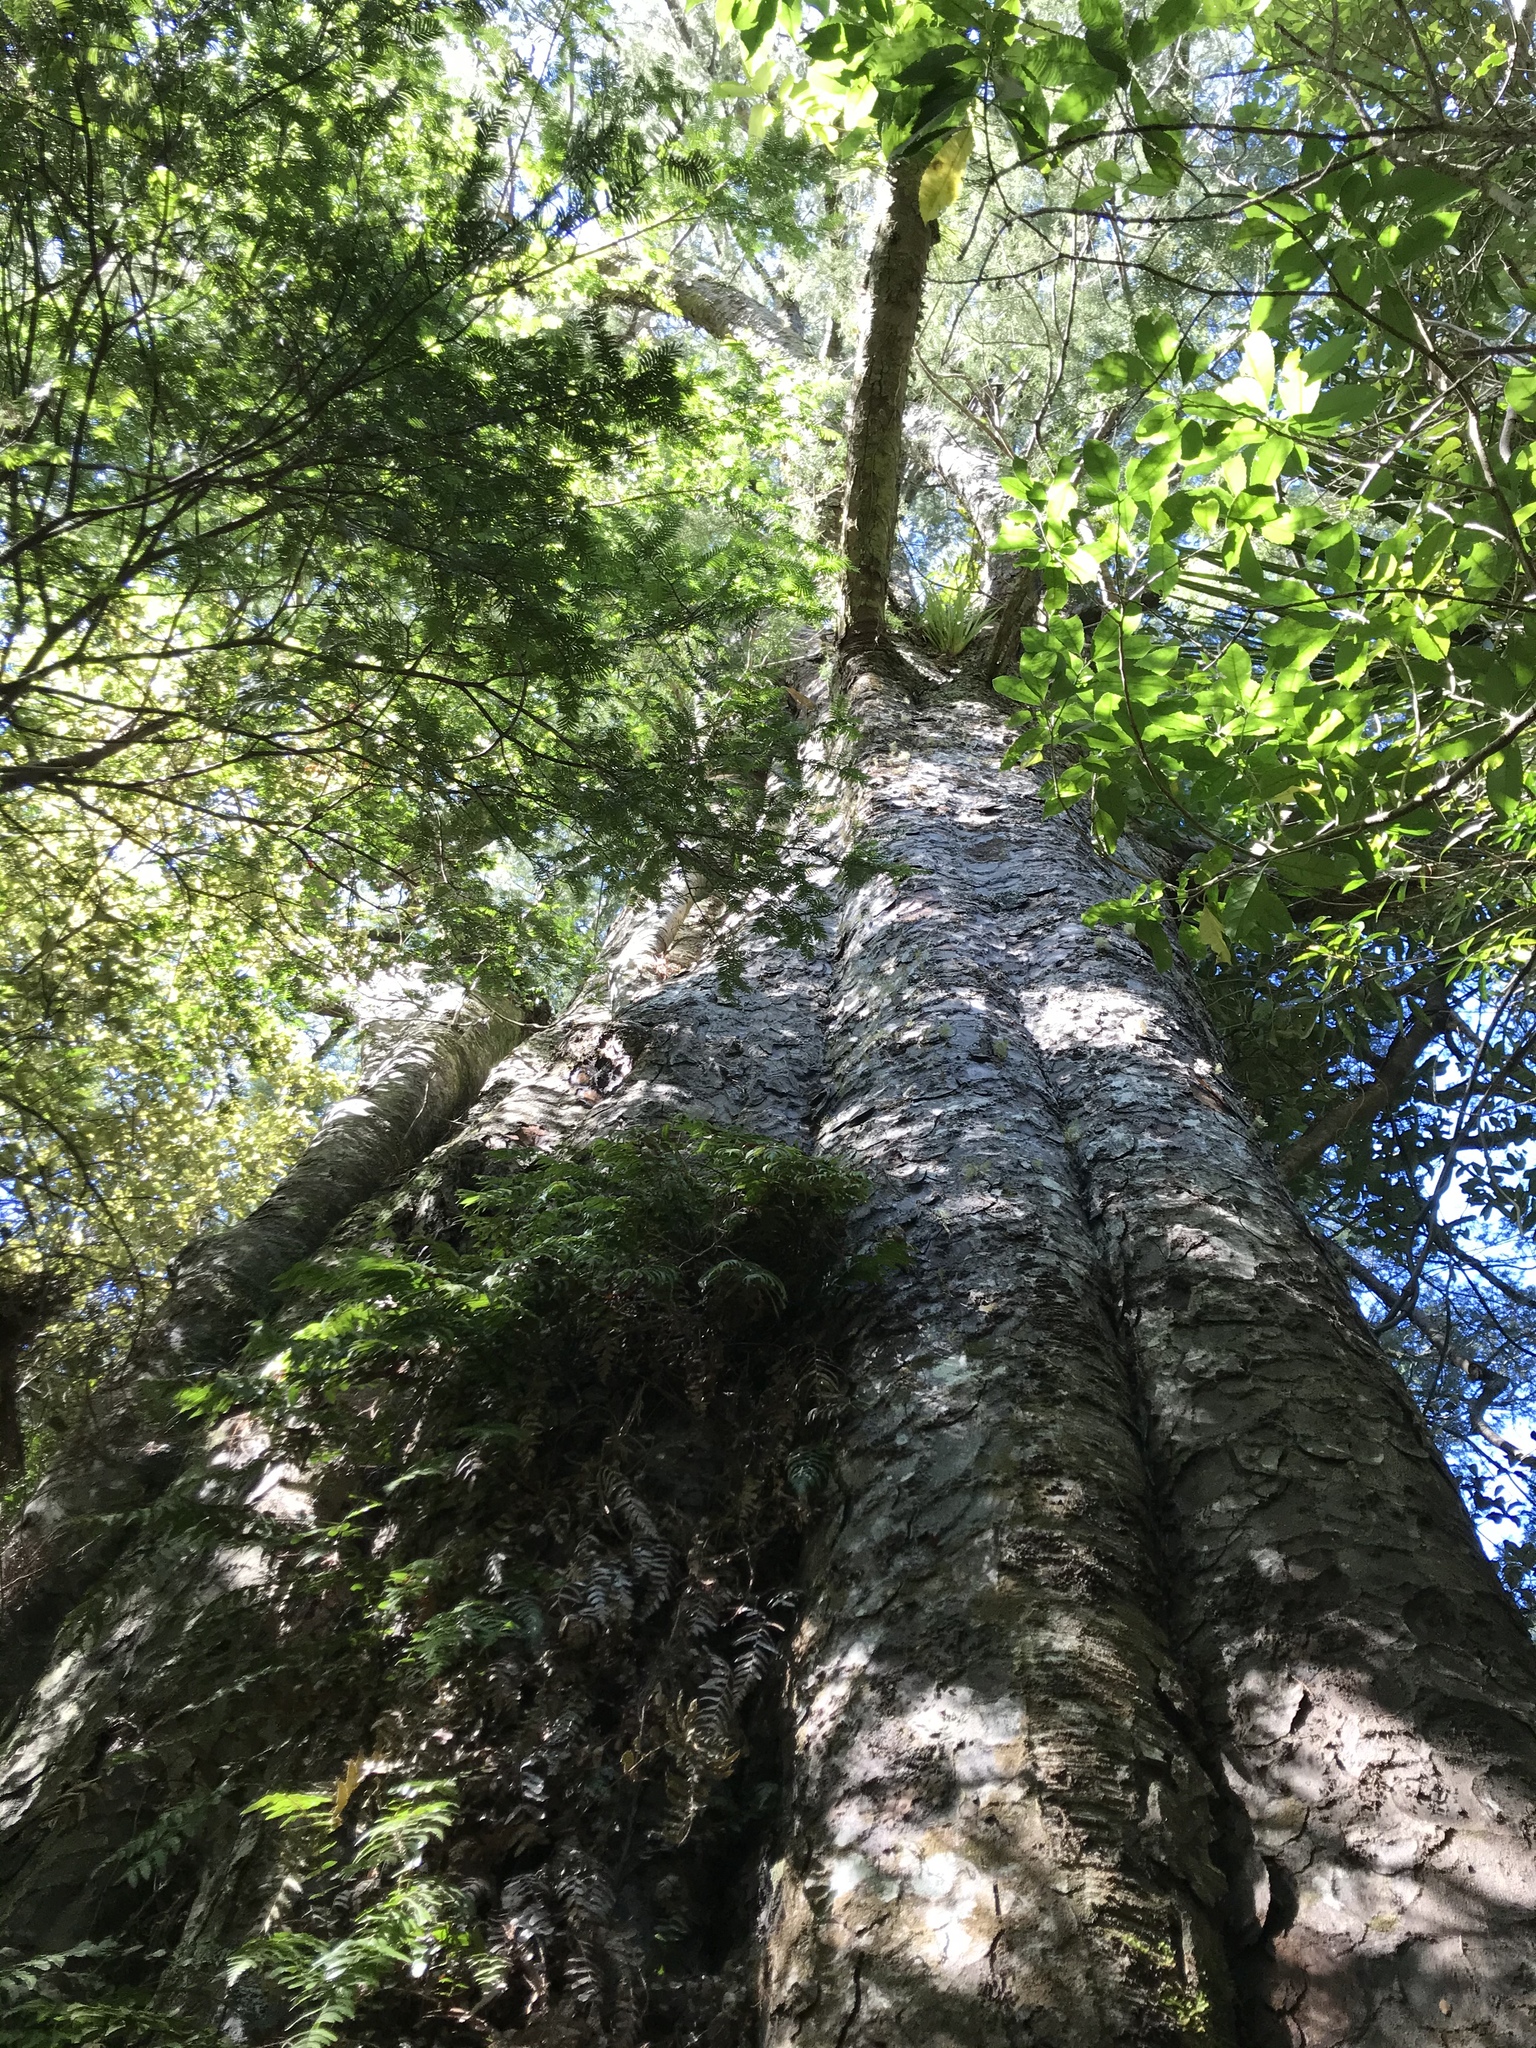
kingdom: Plantae
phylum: Tracheophyta
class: Pinopsida
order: Pinales
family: Podocarpaceae
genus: Dacrycarpus
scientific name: Dacrycarpus dacrydioides
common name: White pine
